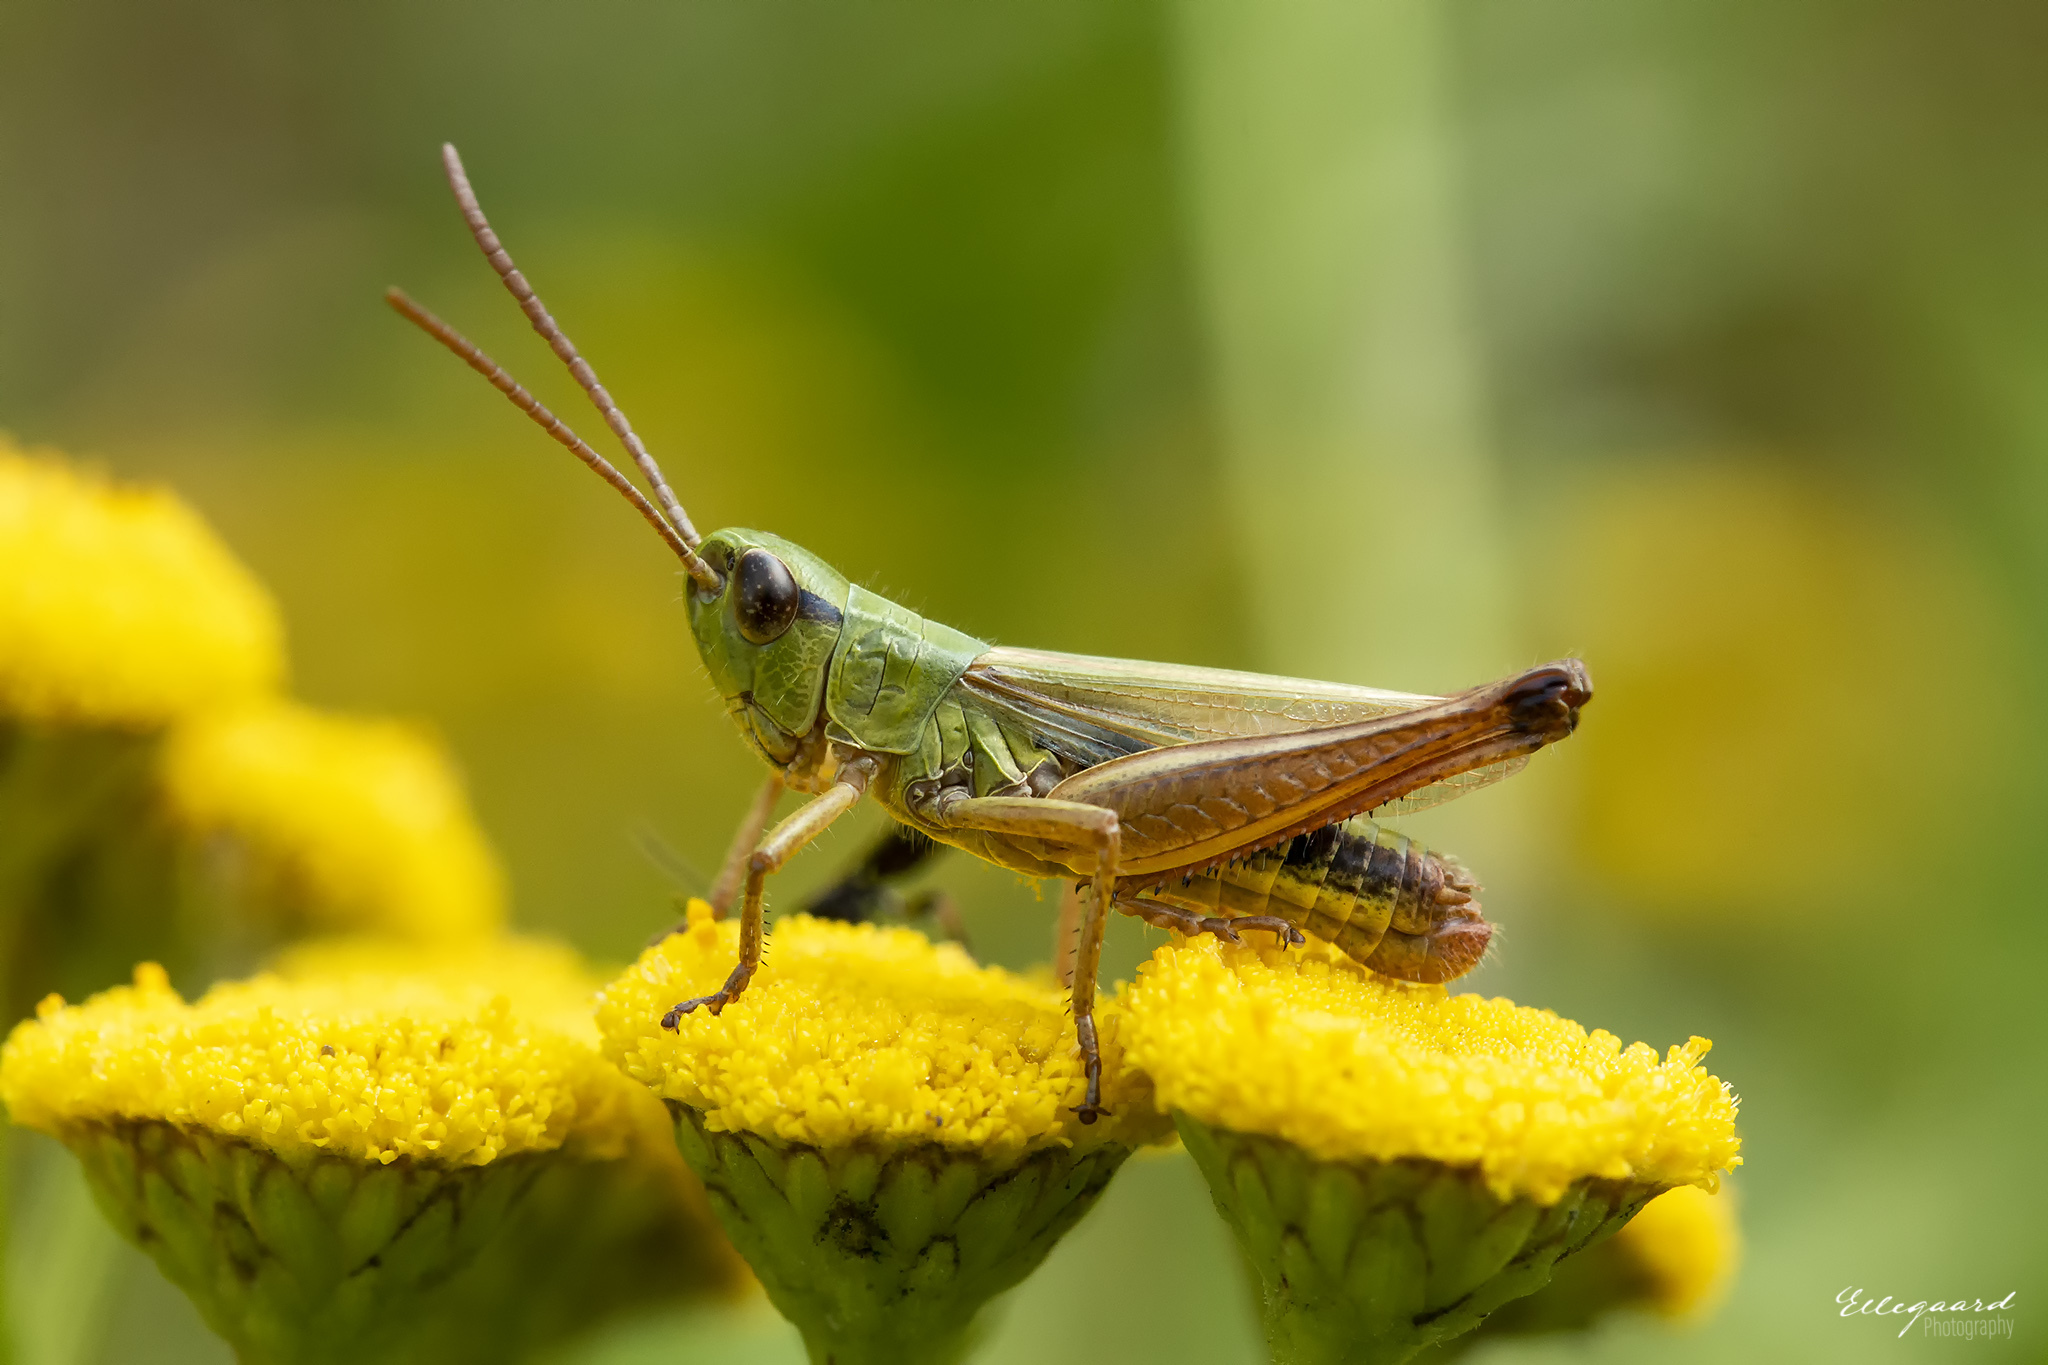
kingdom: Animalia
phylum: Arthropoda
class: Insecta
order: Orthoptera
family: Acrididae
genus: Pseudochorthippus
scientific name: Pseudochorthippus parallelus
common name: Meadow grasshopper
